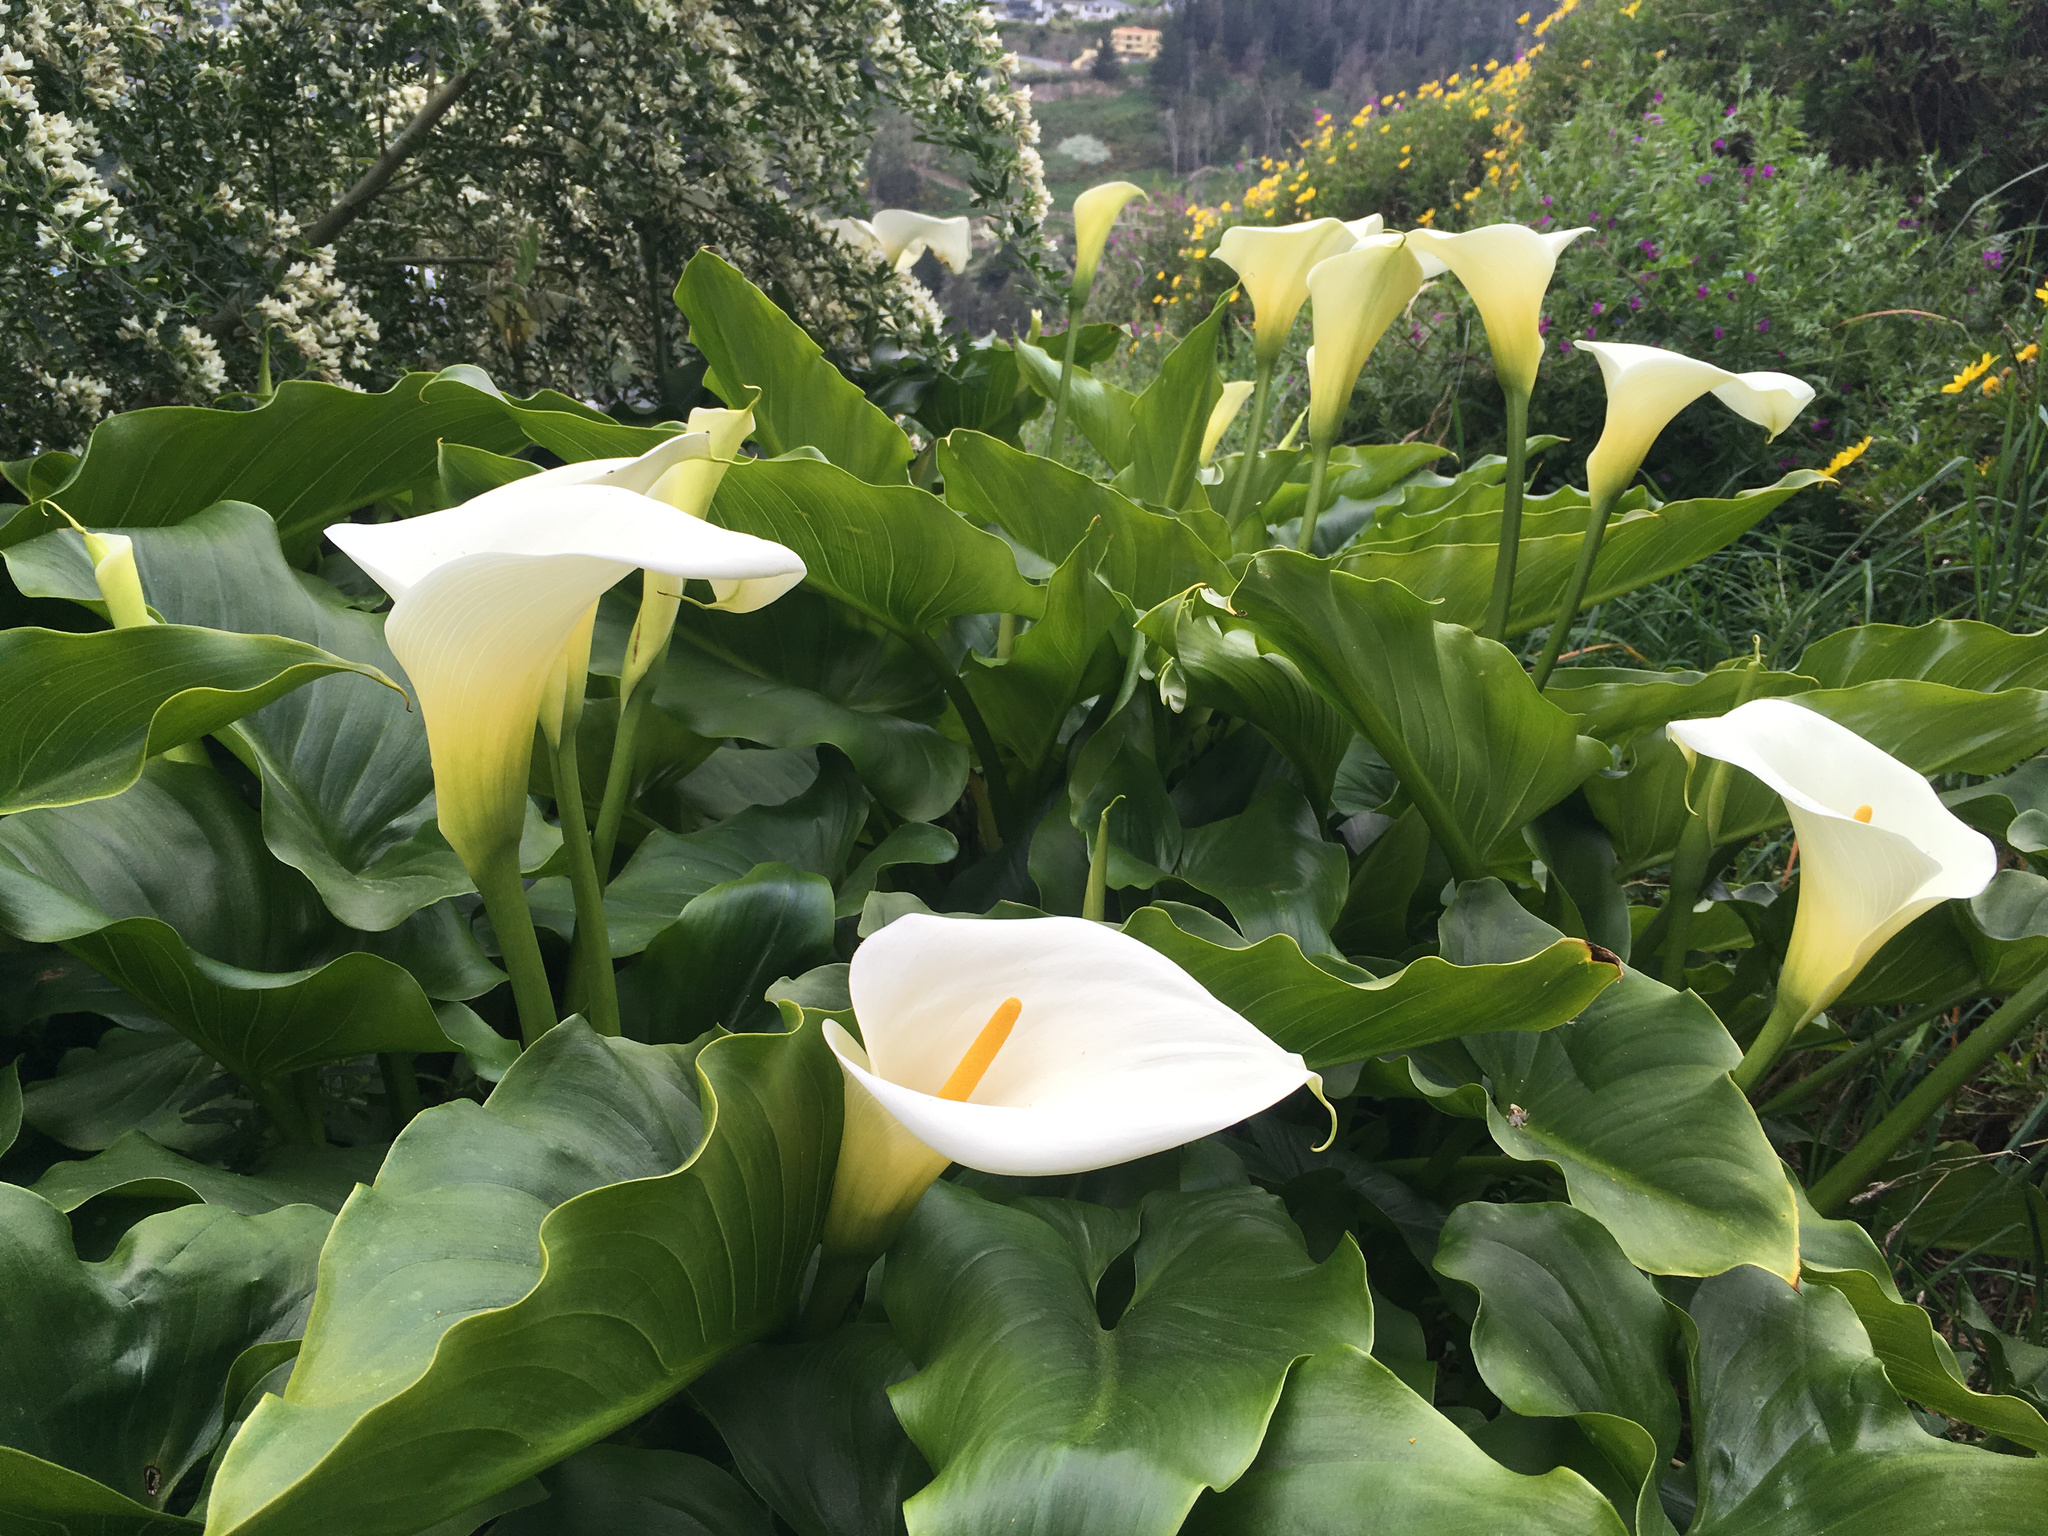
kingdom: Plantae
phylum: Tracheophyta
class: Liliopsida
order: Alismatales
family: Araceae
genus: Zantedeschia
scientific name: Zantedeschia aethiopica
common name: Altar-lily
